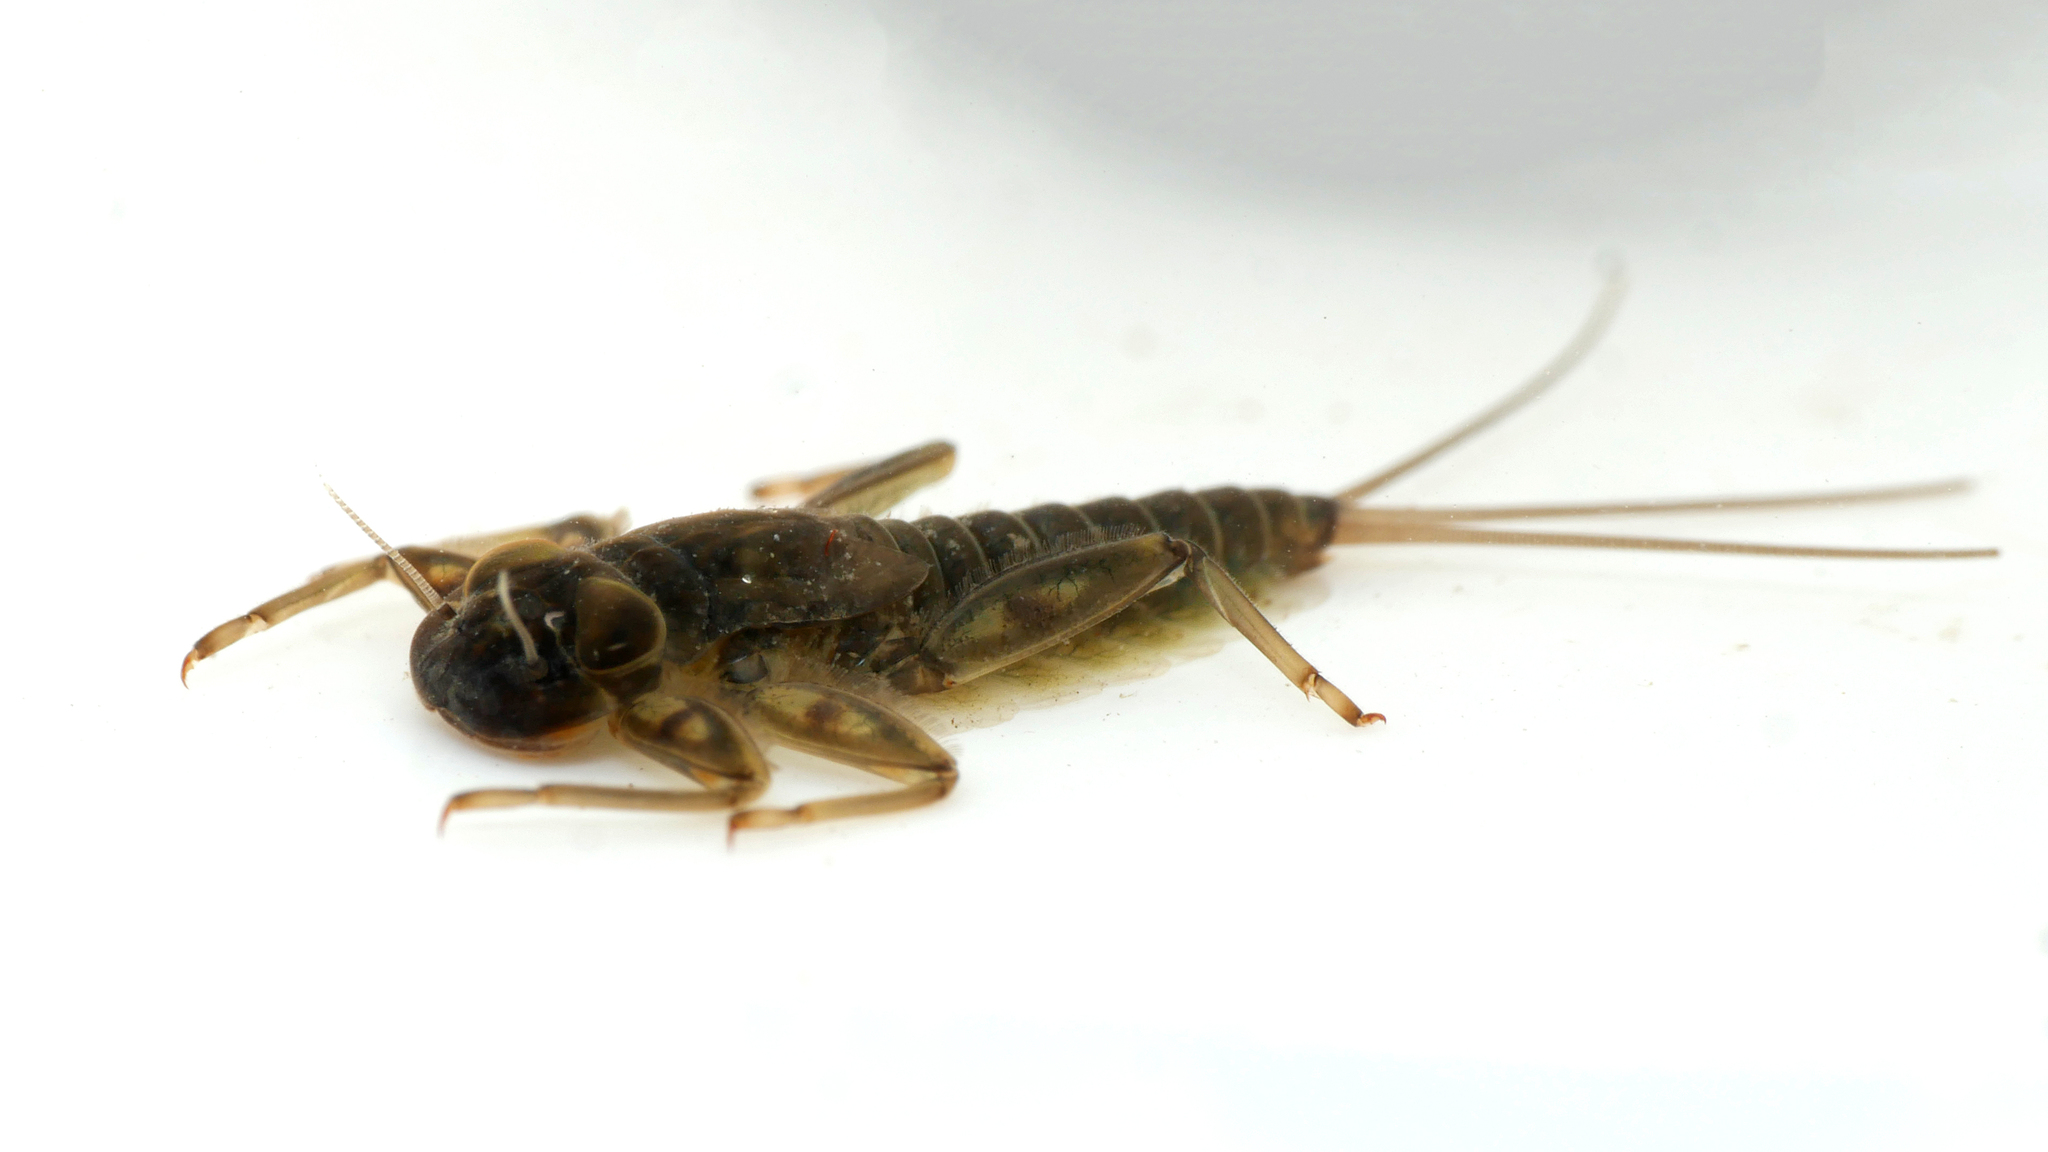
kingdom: Animalia
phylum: Arthropoda
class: Insecta
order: Ephemeroptera
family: Heptageniidae
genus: Rhithrogena
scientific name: Rhithrogena germanica
